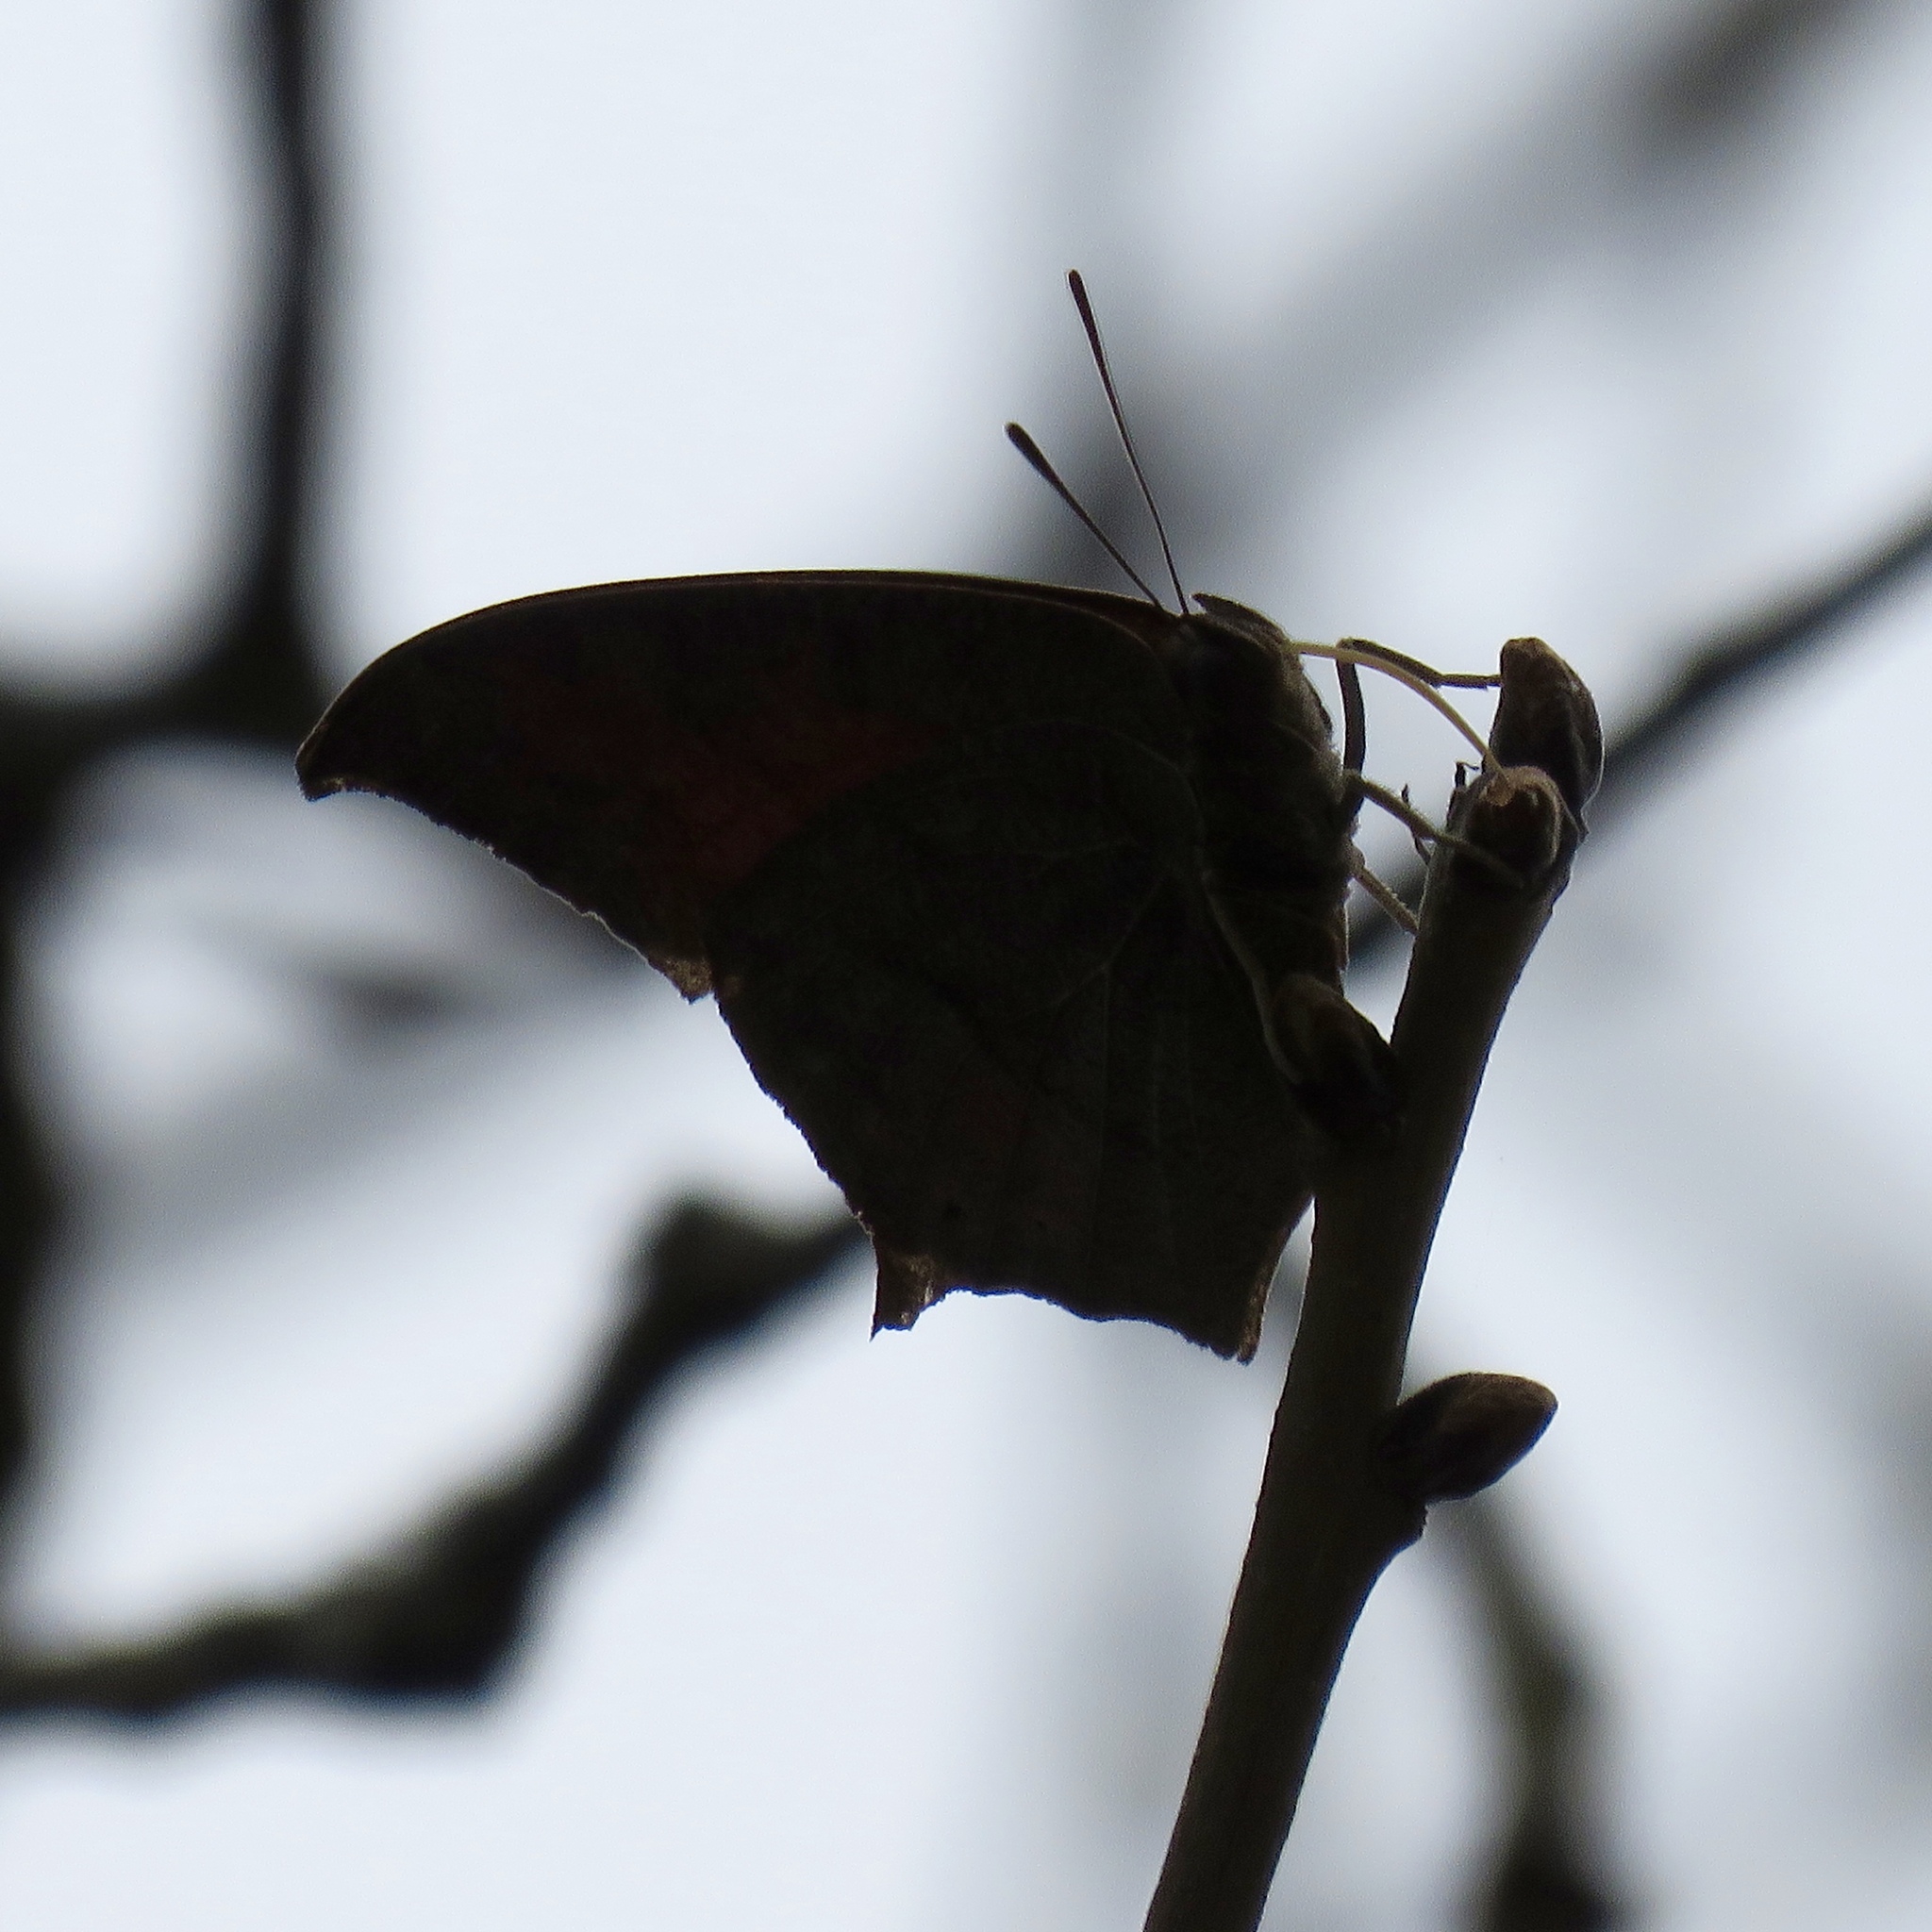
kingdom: Animalia
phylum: Arthropoda
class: Insecta
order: Lepidoptera
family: Nymphalidae
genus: Anaea
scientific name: Anaea andria
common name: Goatweed leafwing
